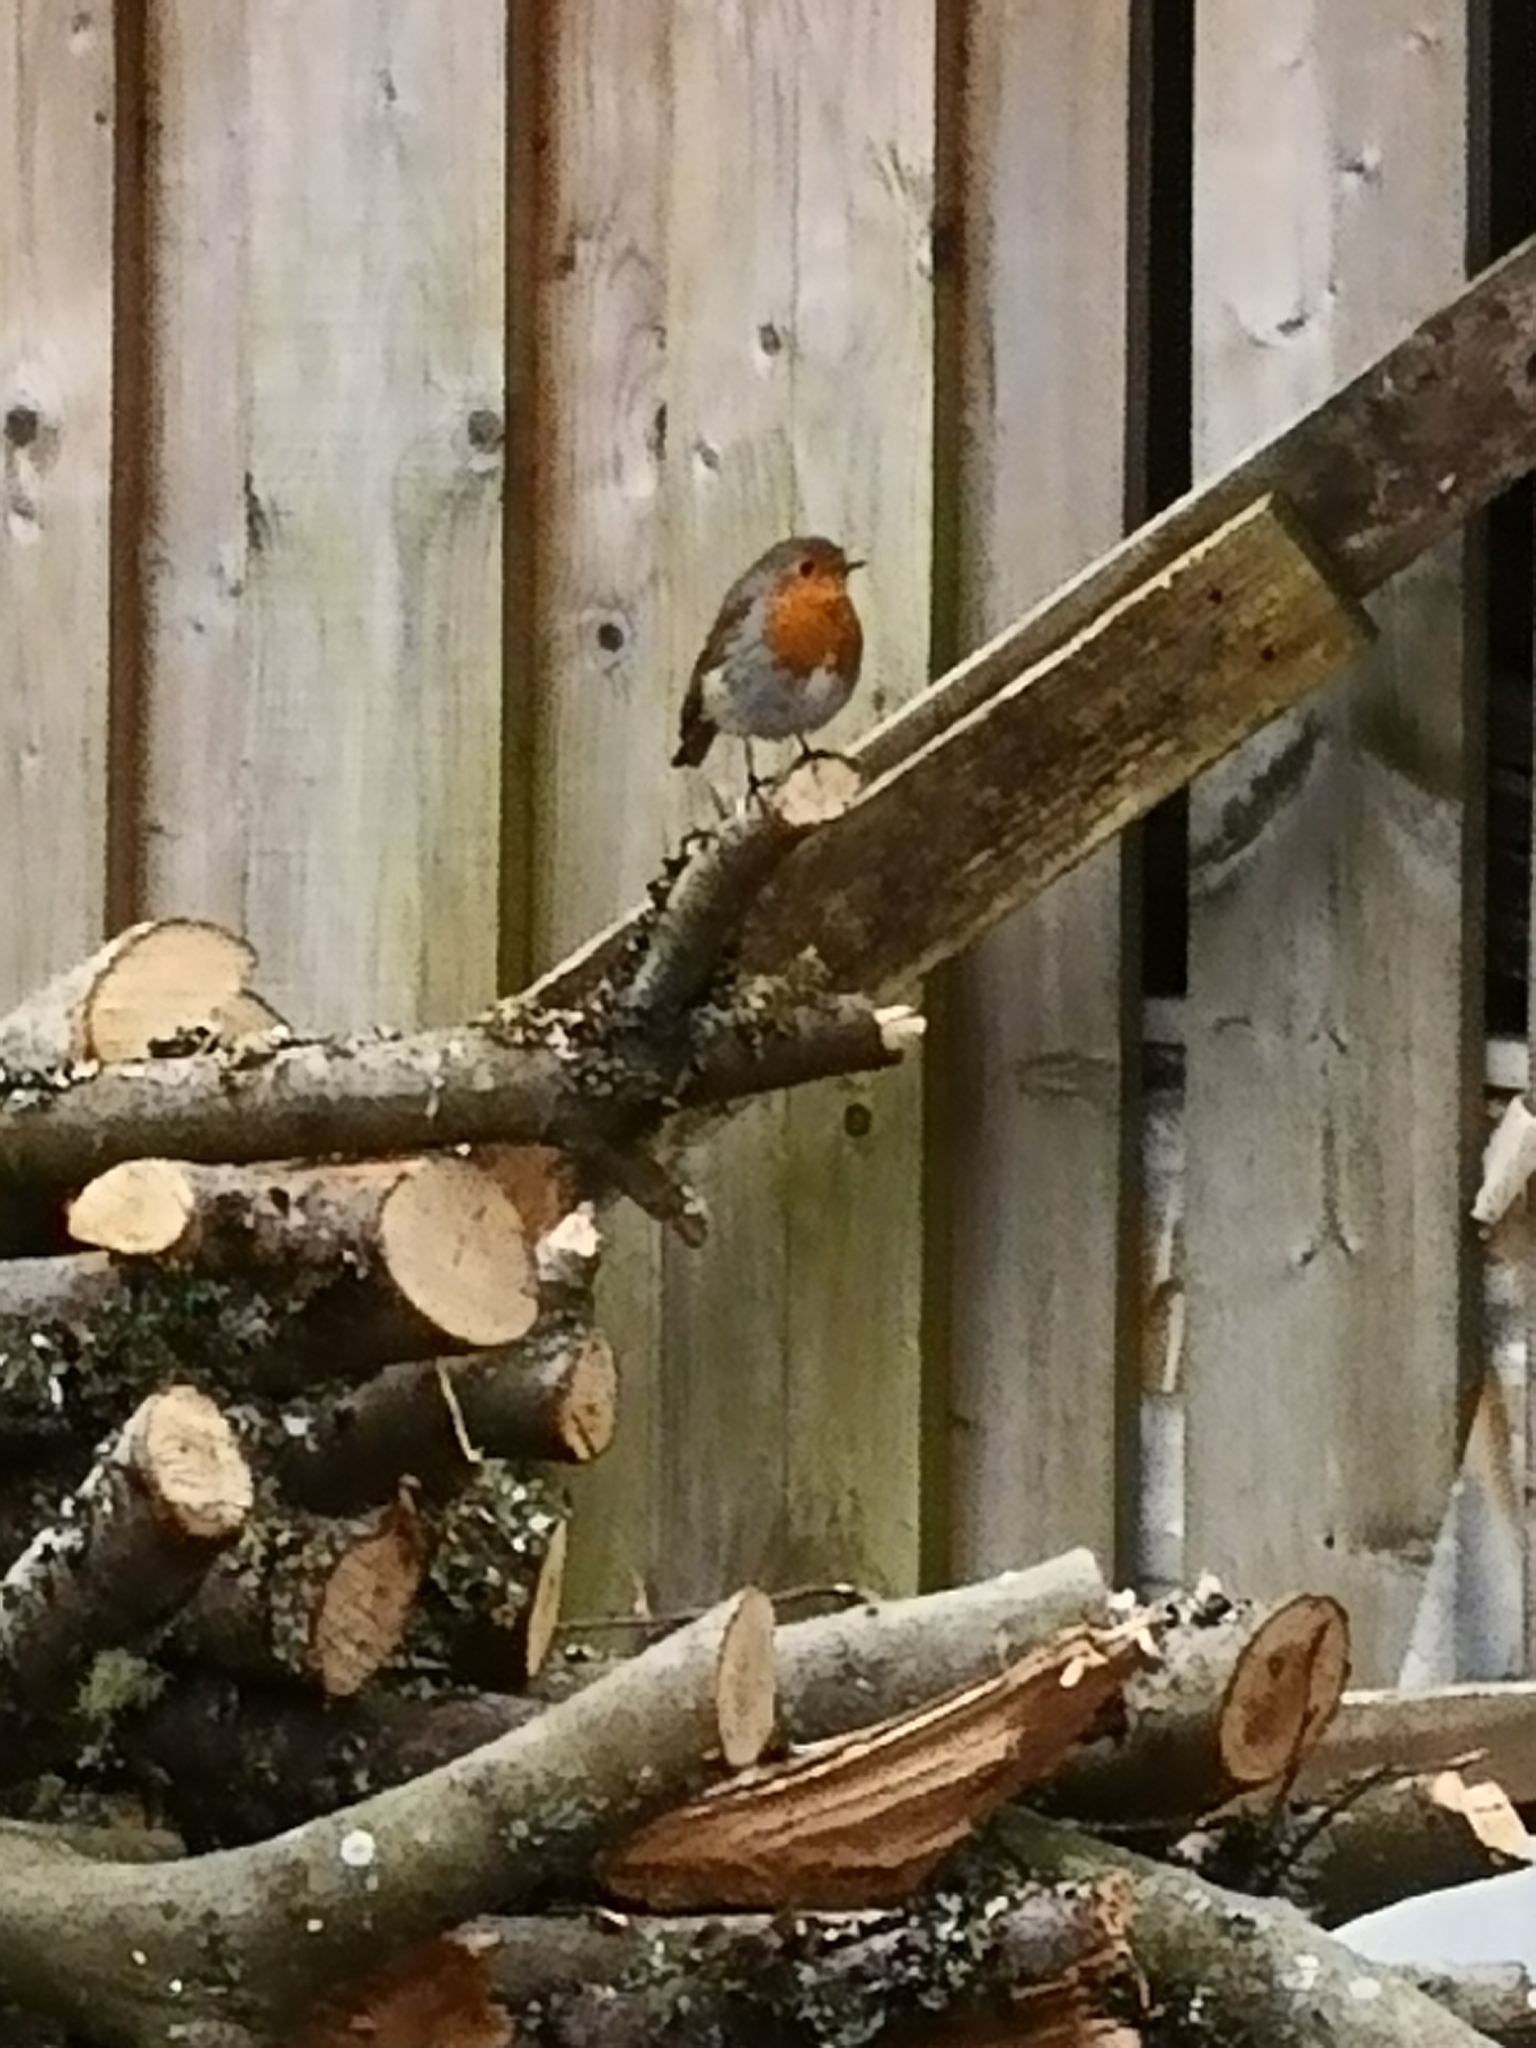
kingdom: Animalia
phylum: Chordata
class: Aves
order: Passeriformes
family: Muscicapidae
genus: Erithacus
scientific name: Erithacus rubecula
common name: European robin
